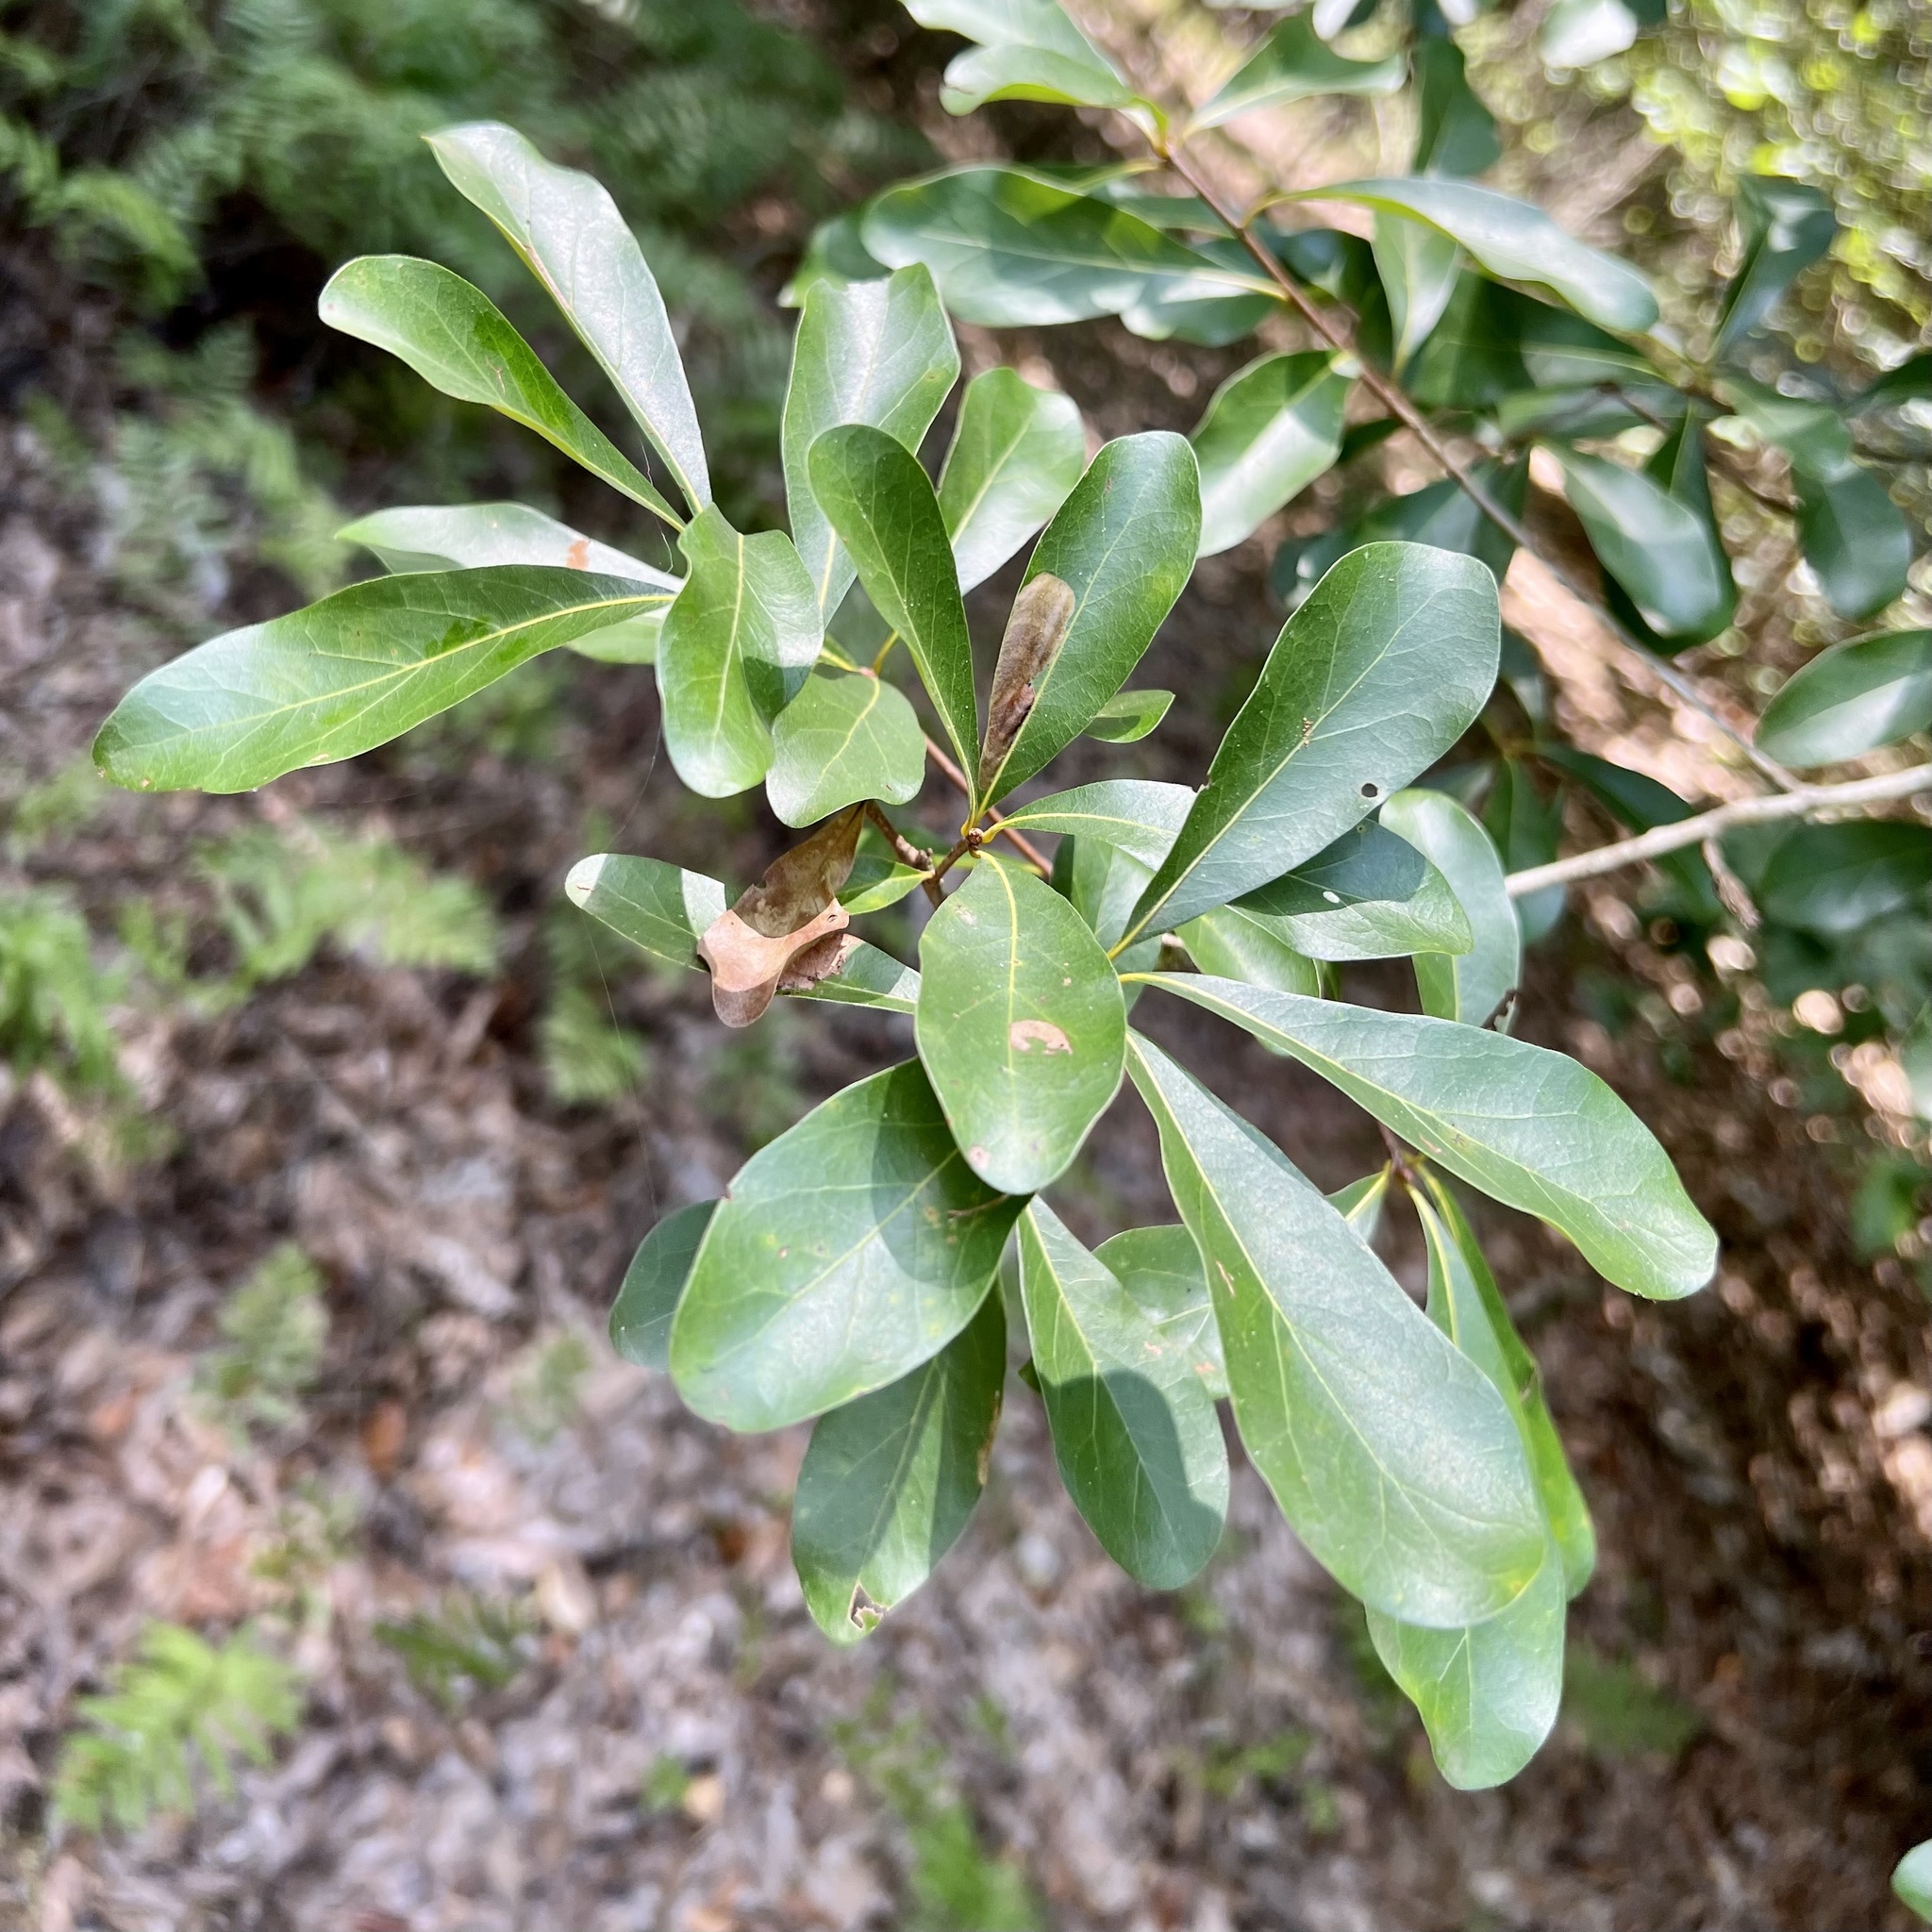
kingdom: Plantae
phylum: Tracheophyta
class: Magnoliopsida
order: Fagales
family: Fagaceae
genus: Quercus
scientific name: Quercus nigra
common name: Water oak
